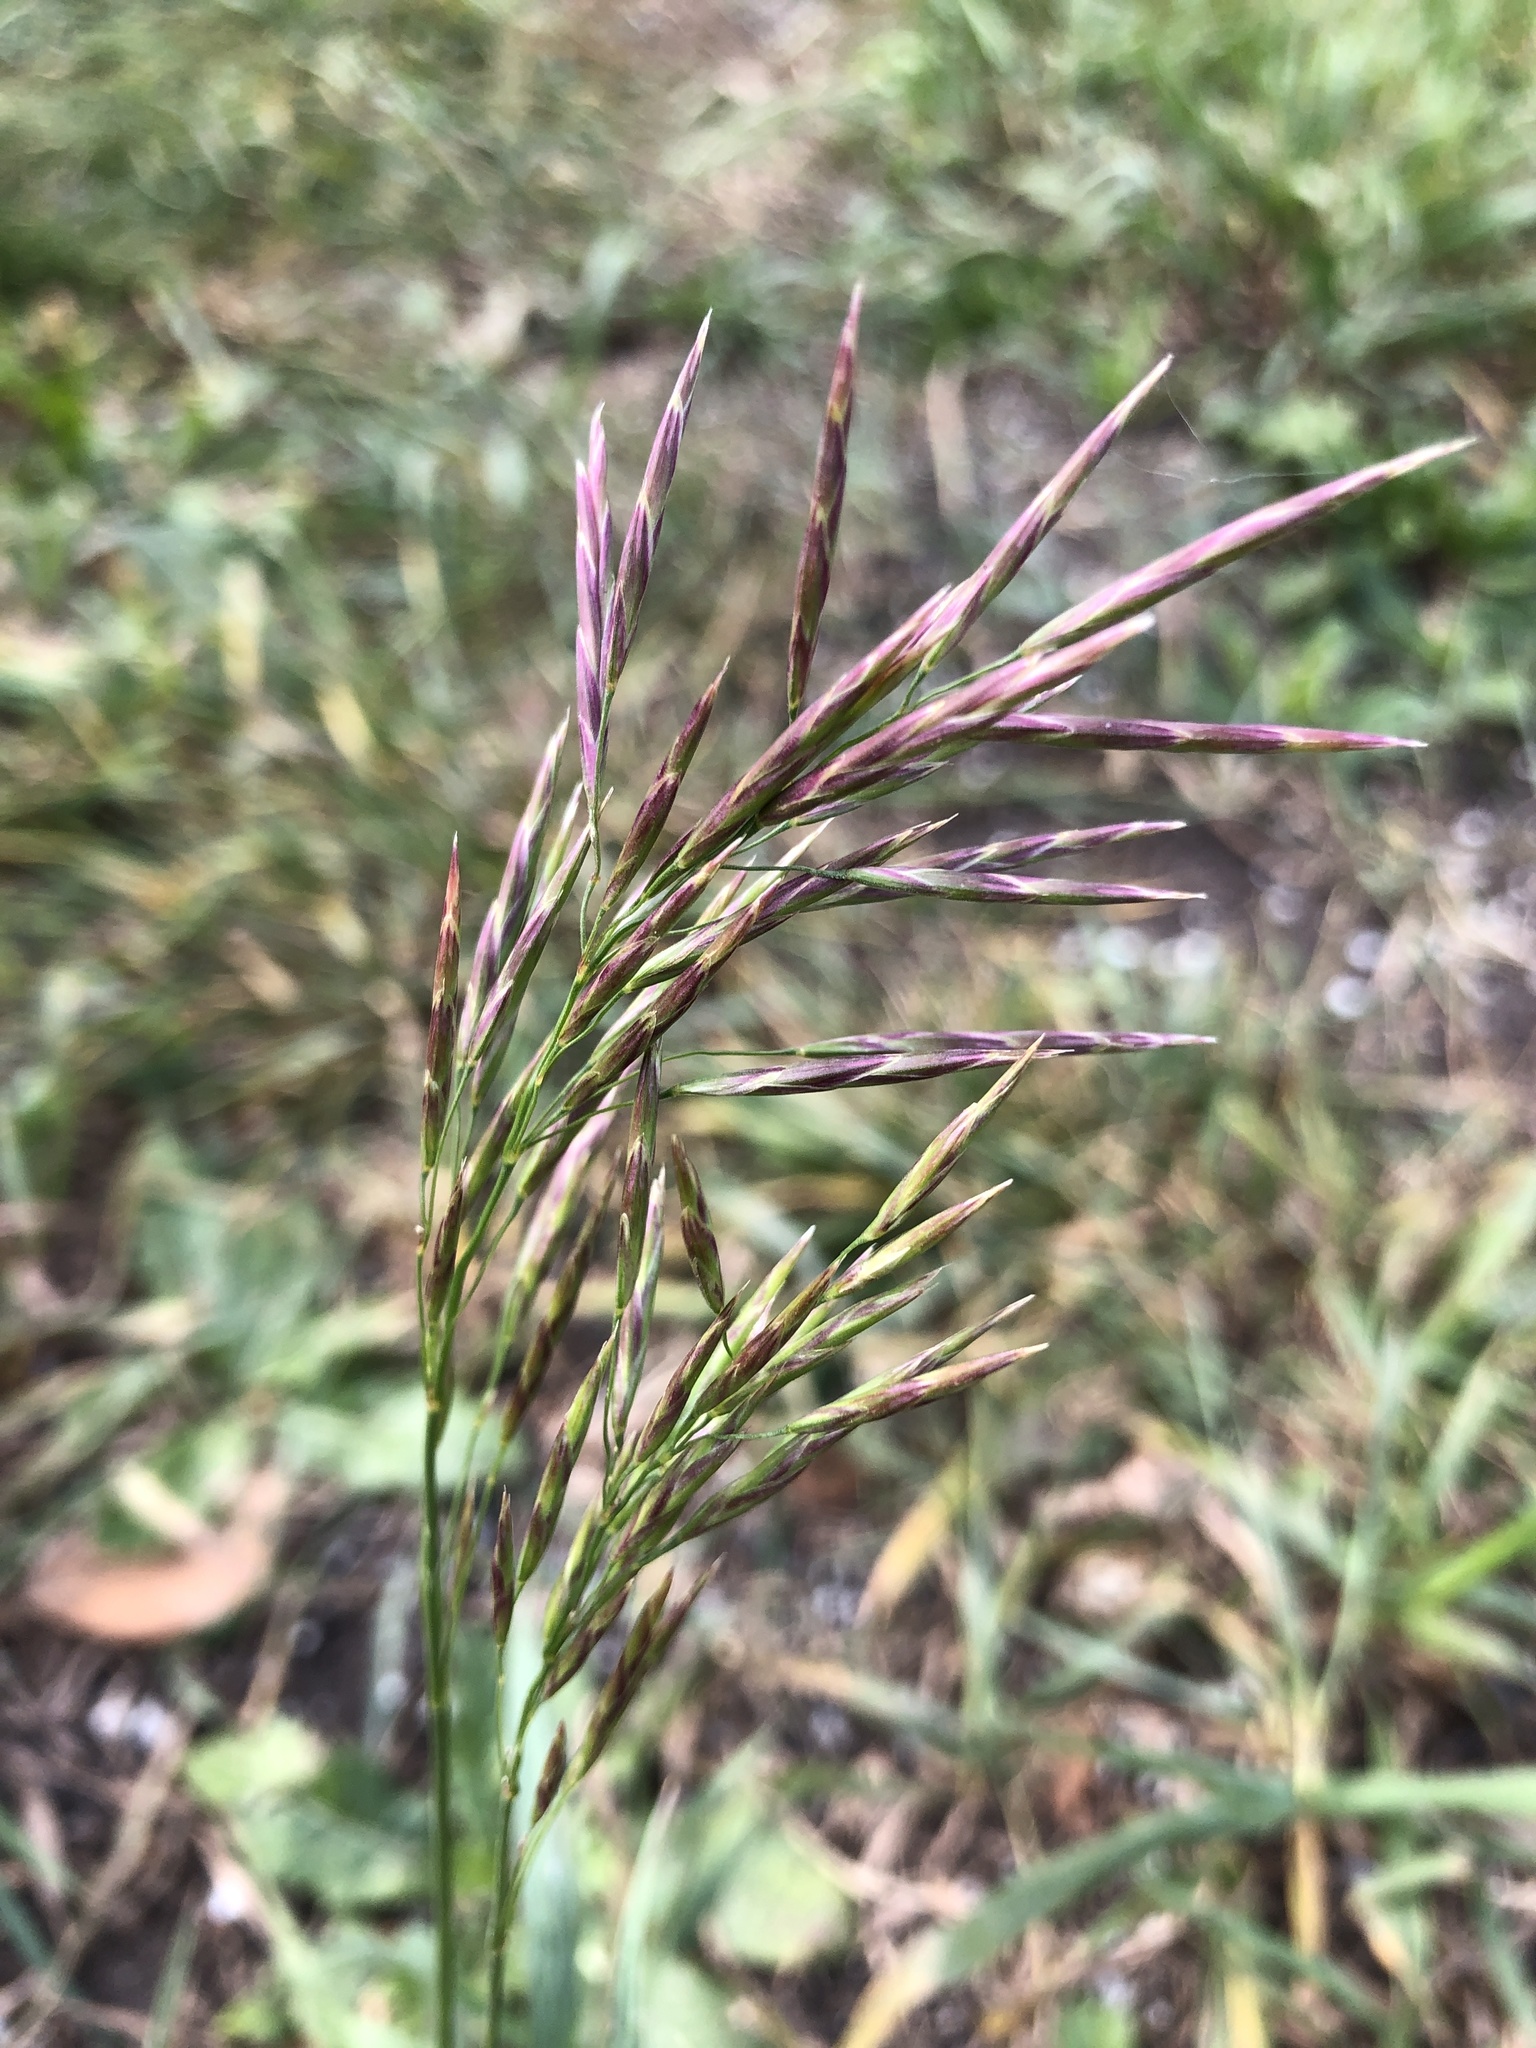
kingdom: Plantae
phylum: Tracheophyta
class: Liliopsida
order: Poales
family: Poaceae
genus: Bromus
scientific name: Bromus inermis
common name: Smooth brome
